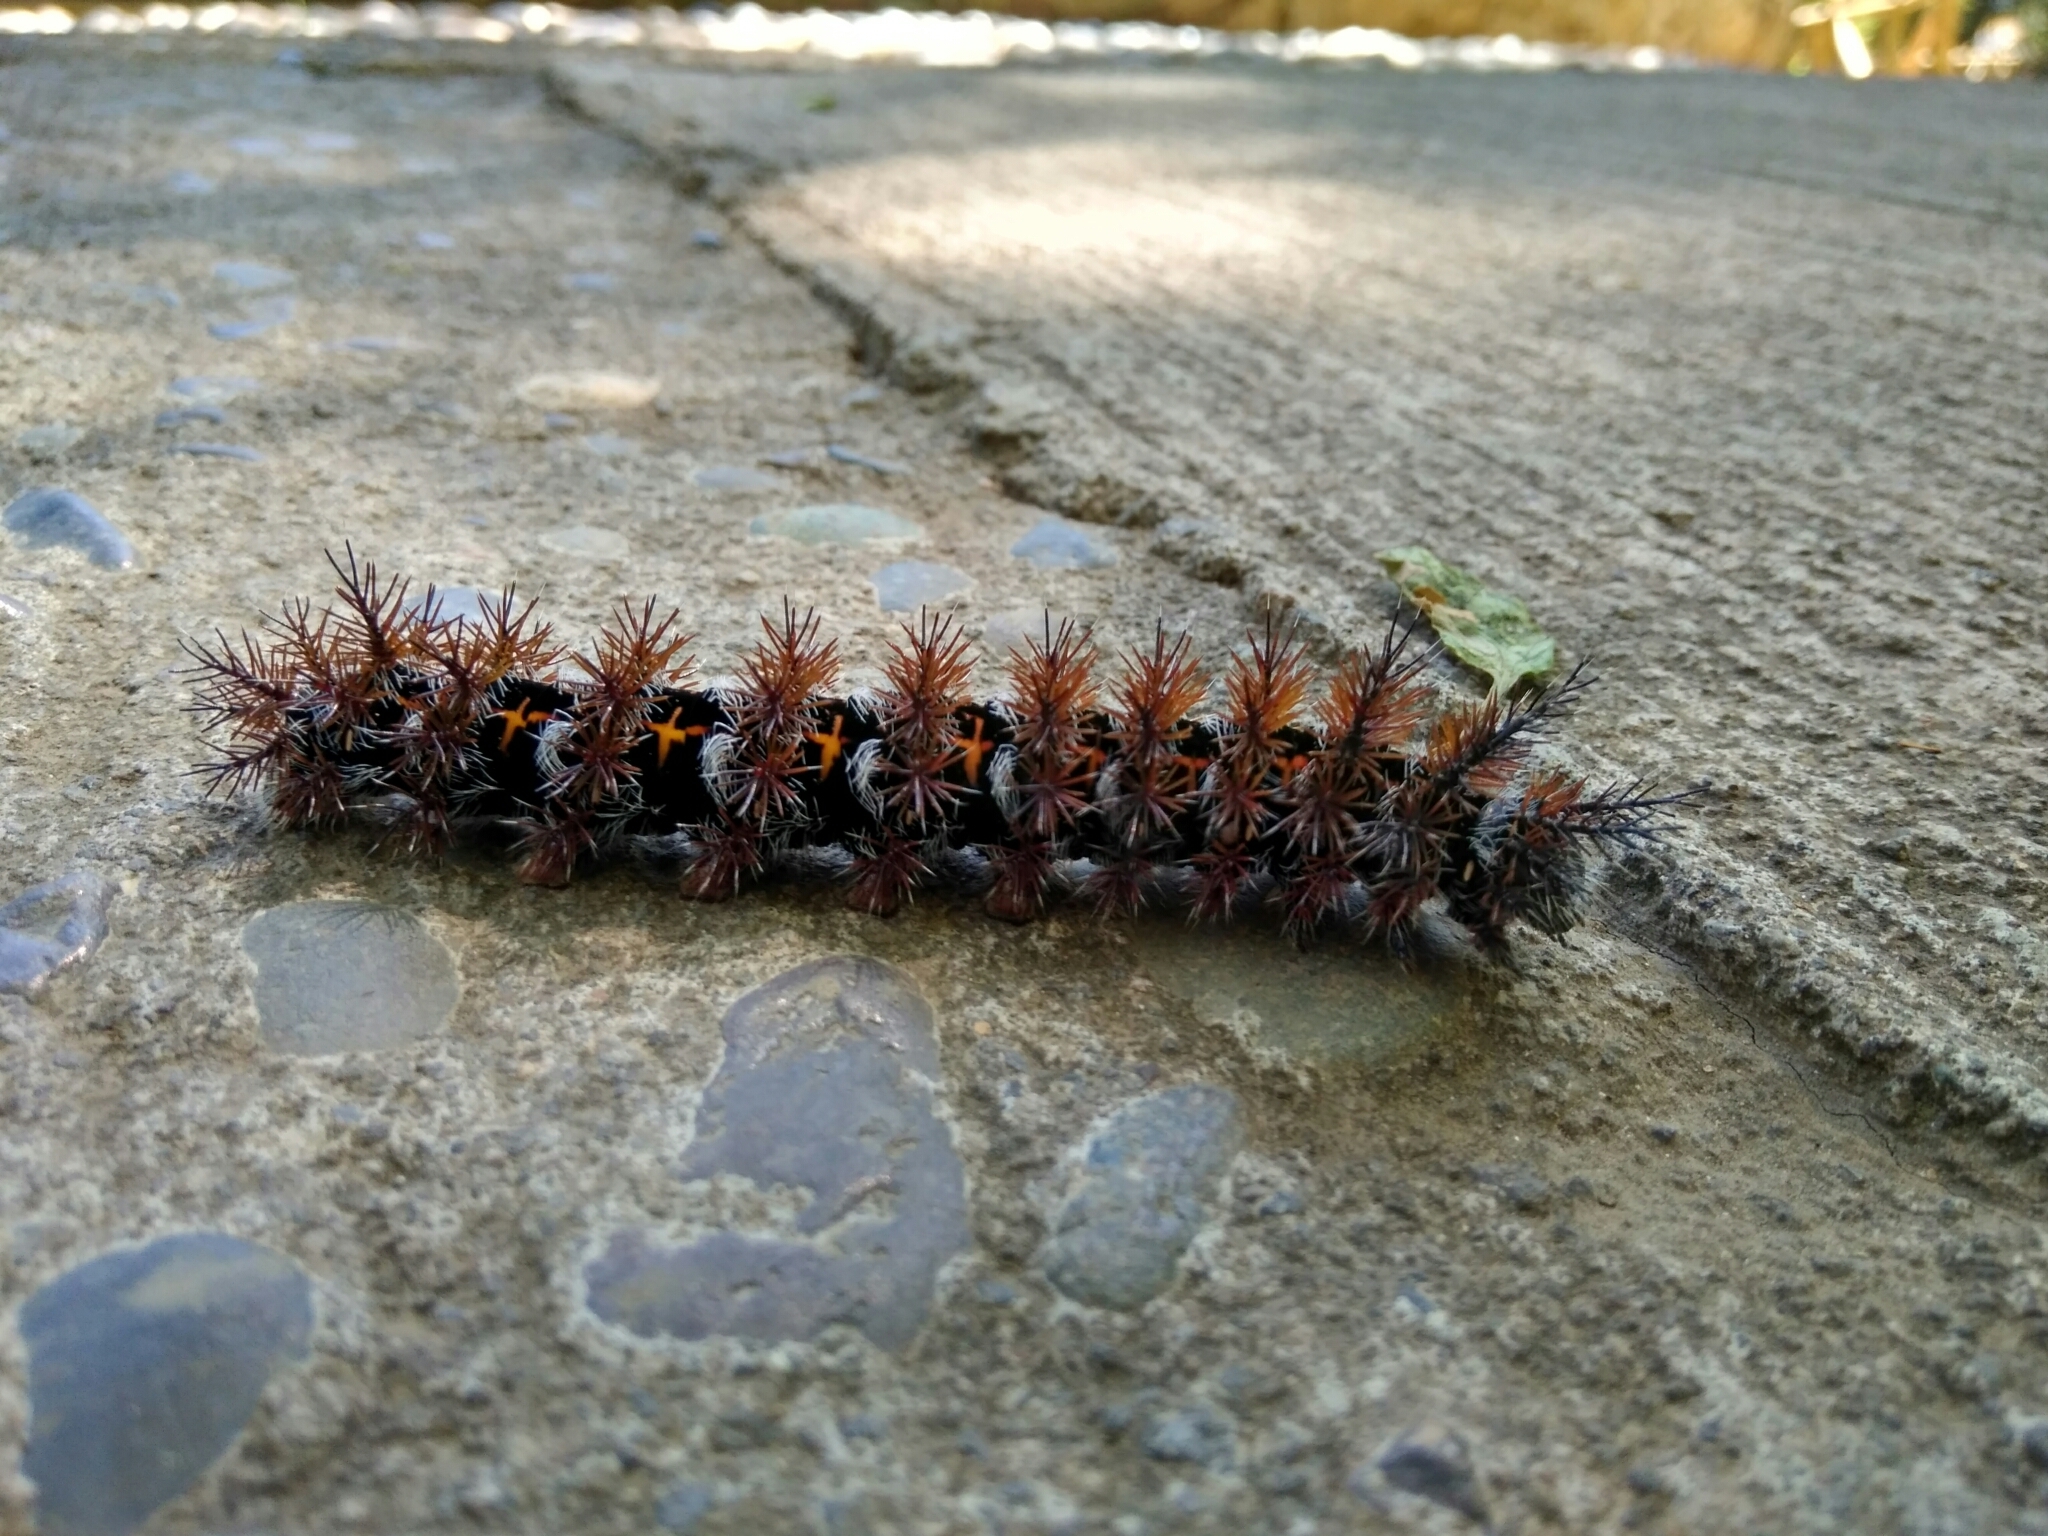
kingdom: Animalia
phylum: Arthropoda
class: Insecta
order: Lepidoptera
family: Saturniidae
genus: Ormiscodes
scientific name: Ormiscodes cinnamomea
